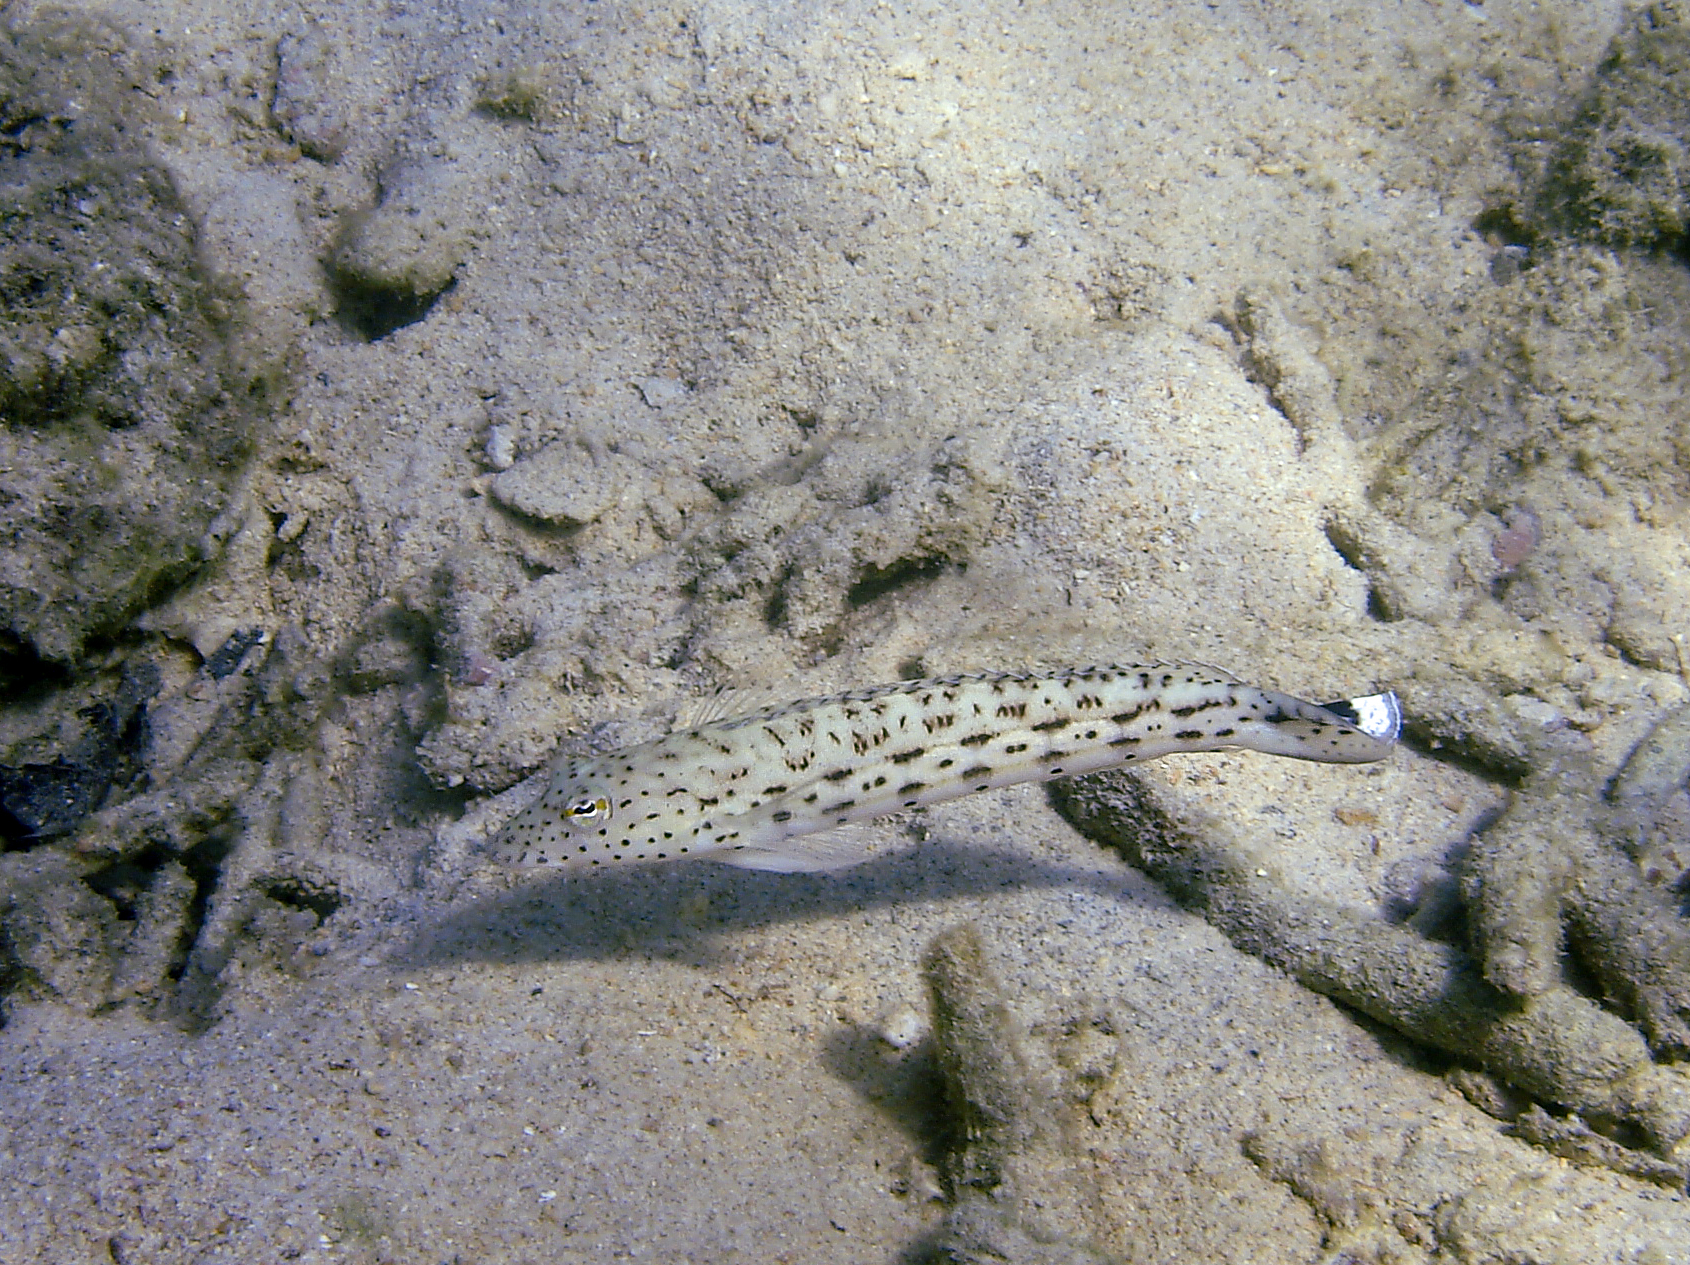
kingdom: Animalia
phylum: Chordata
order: Perciformes
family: Pinguipedidae
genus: Parapercis
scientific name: Parapercis hexophtalma
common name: Speckled sandperch
